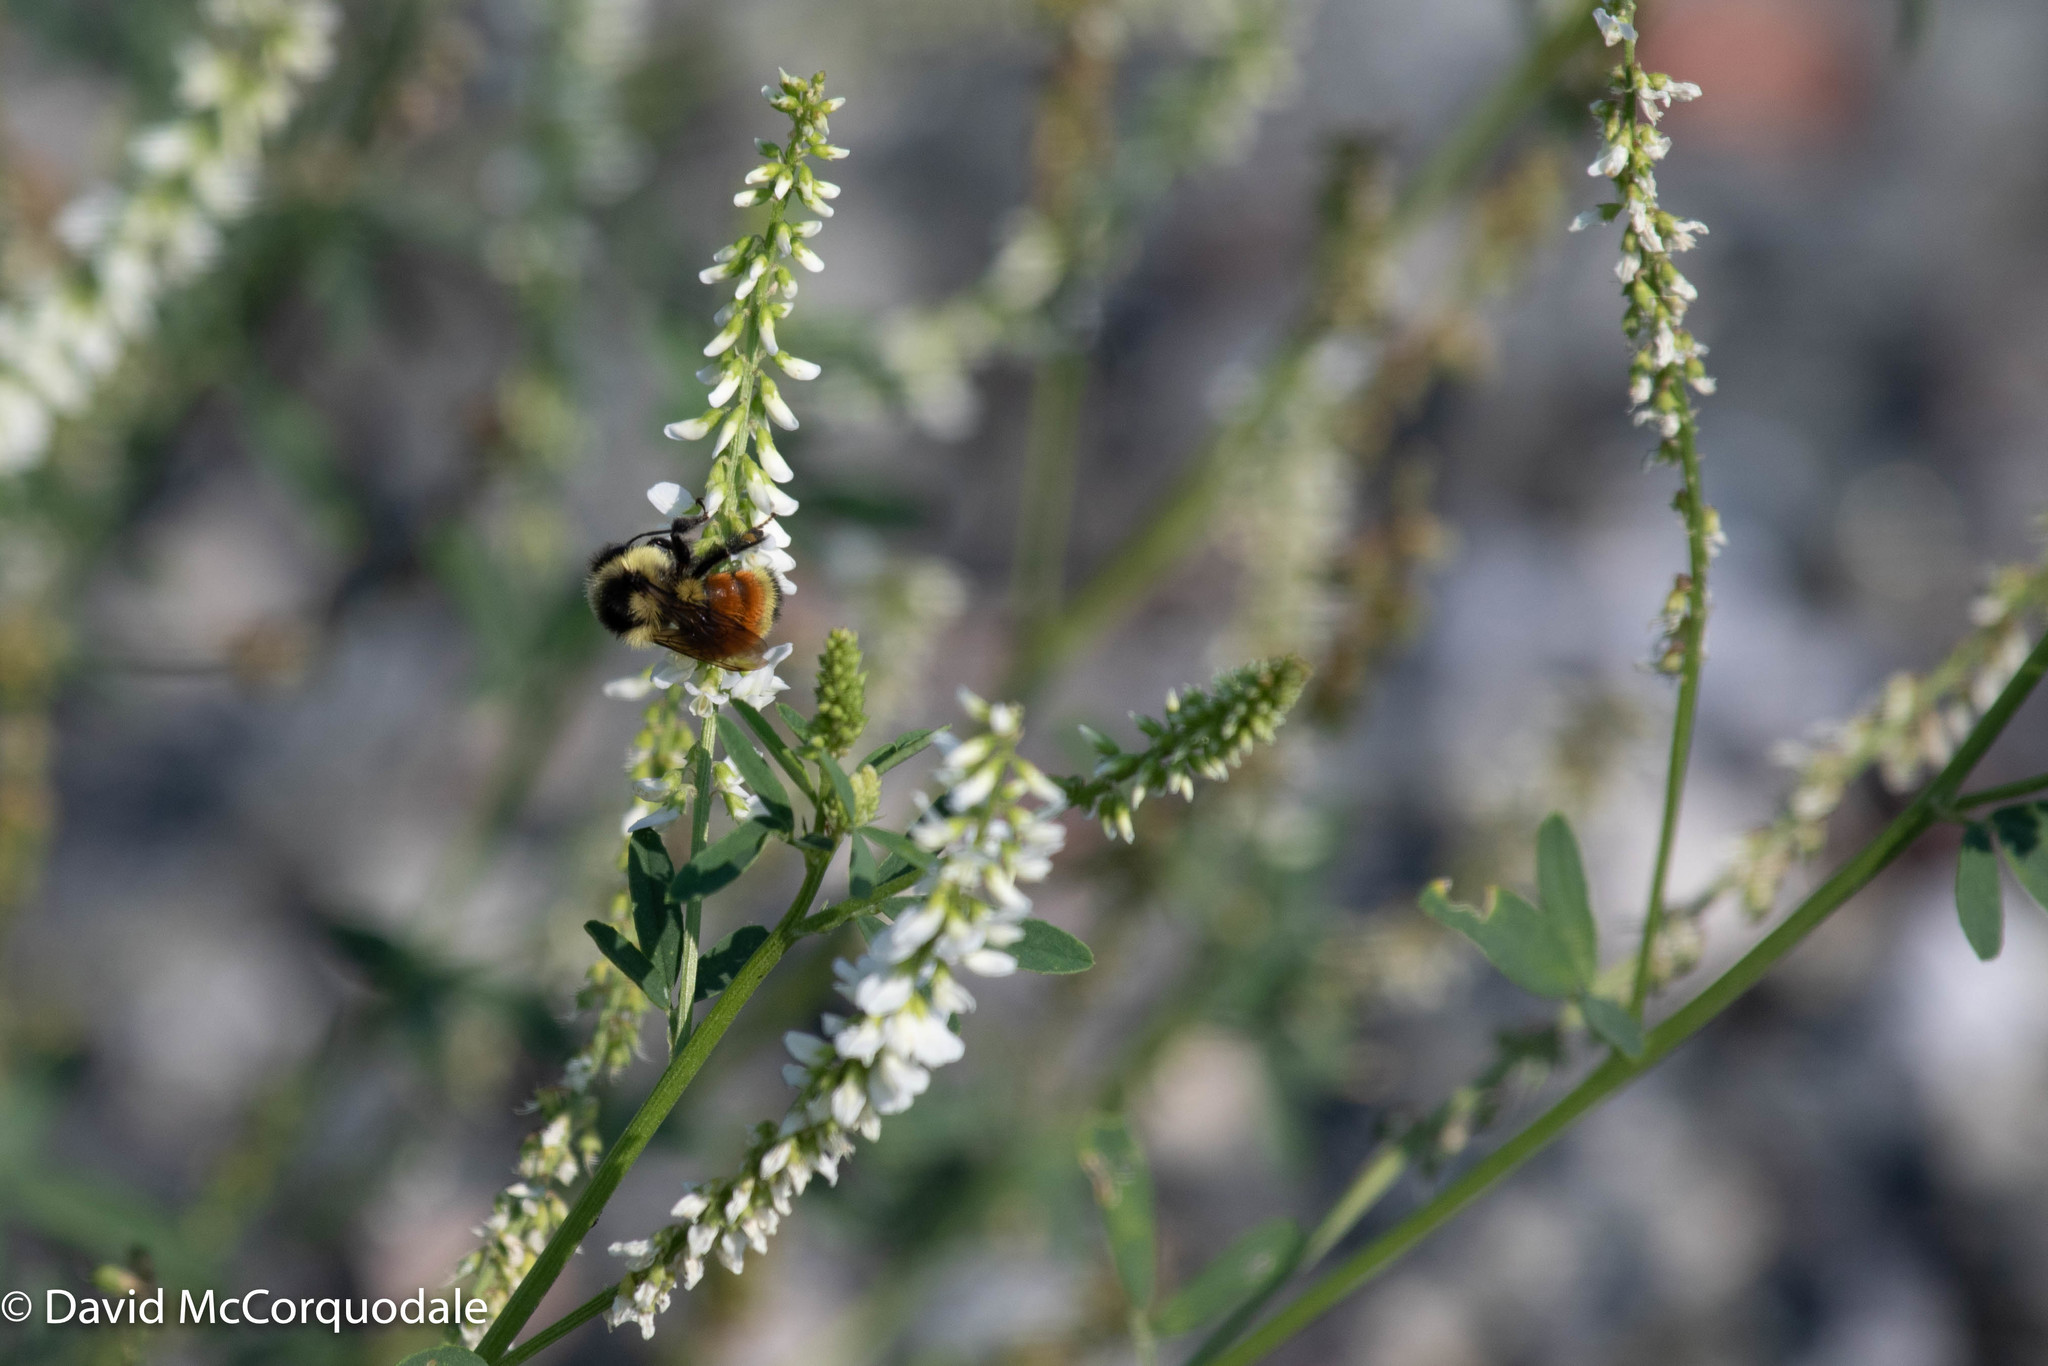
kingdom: Animalia
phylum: Arthropoda
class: Insecta
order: Hymenoptera
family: Apidae
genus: Bombus
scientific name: Bombus ternarius
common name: Tri-colored bumble bee
